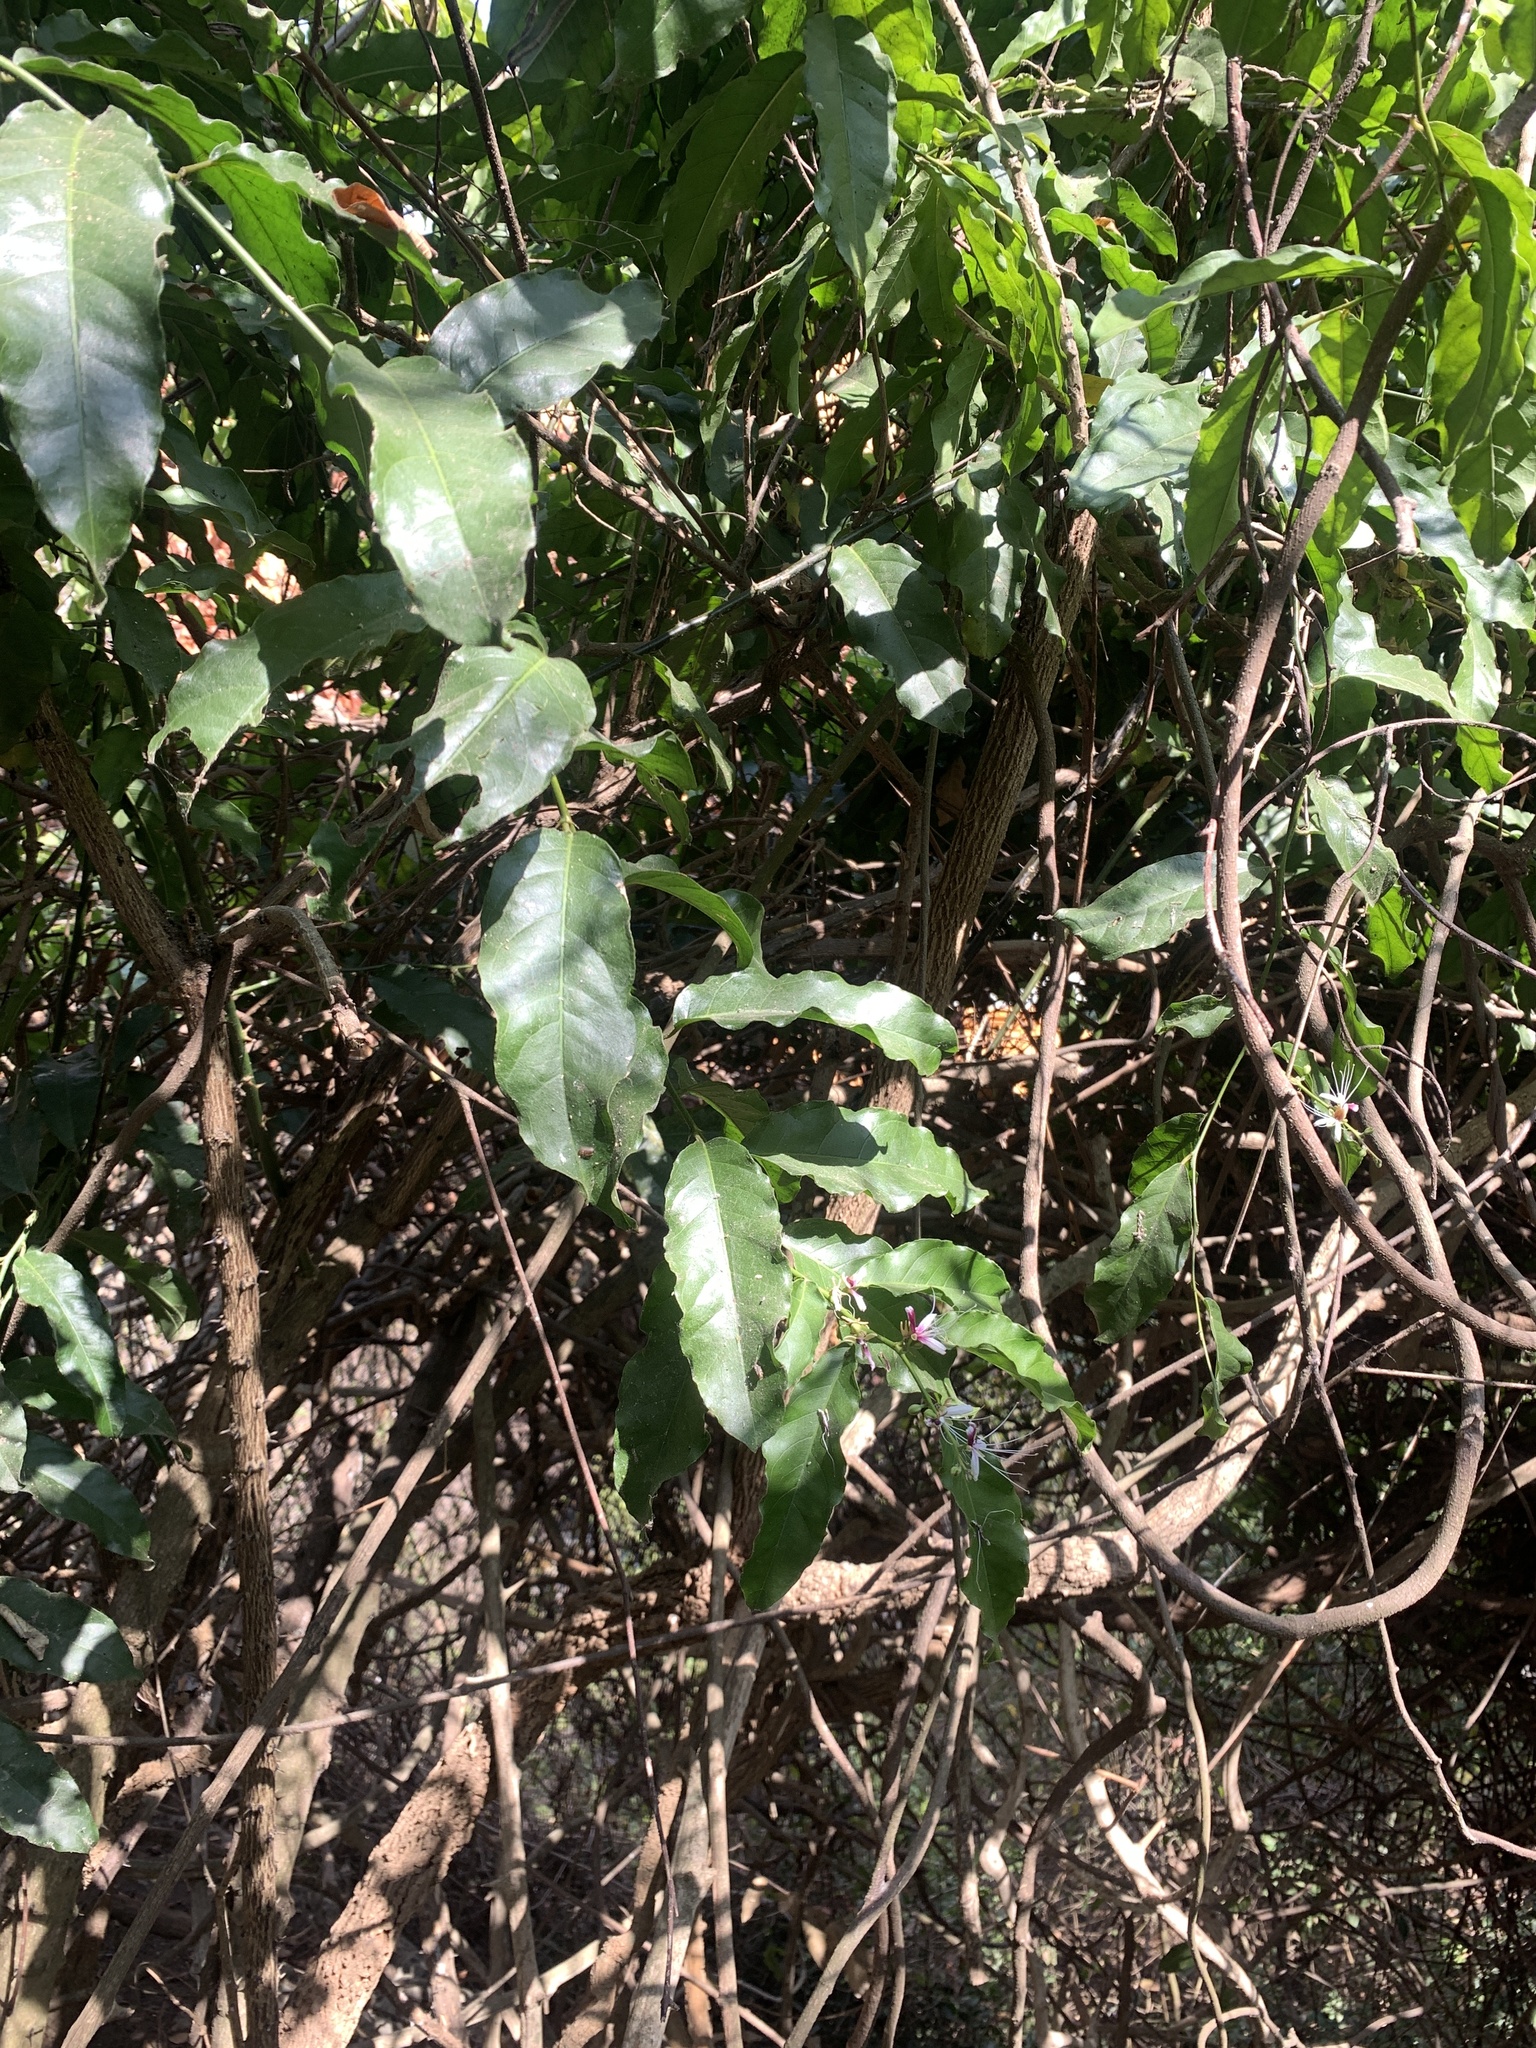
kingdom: Plantae
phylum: Tracheophyta
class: Magnoliopsida
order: Brassicales
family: Capparaceae
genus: Capparis
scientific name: Capparis micracantha
